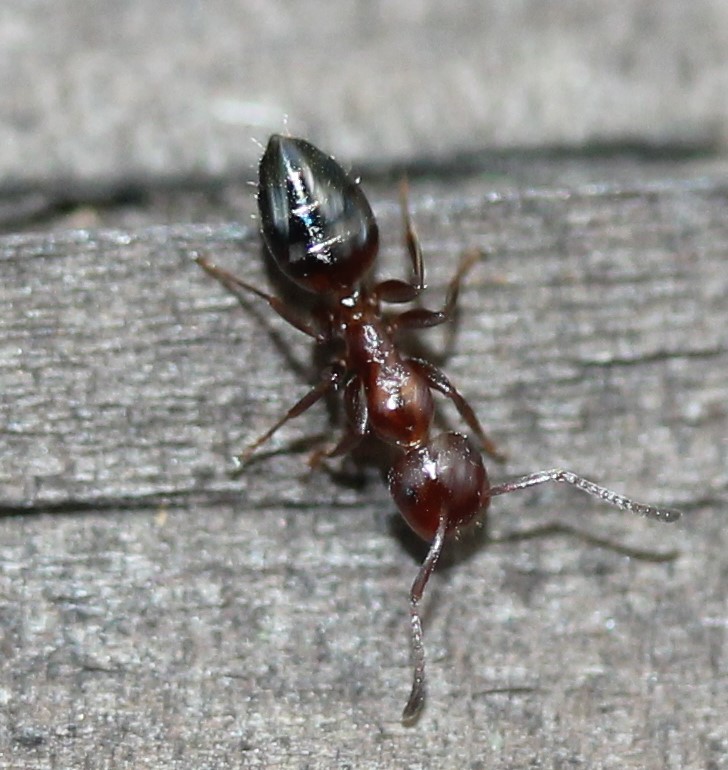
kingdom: Animalia
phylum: Arthropoda
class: Insecta
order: Hymenoptera
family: Formicidae
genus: Colobopsis
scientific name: Colobopsis impressa
